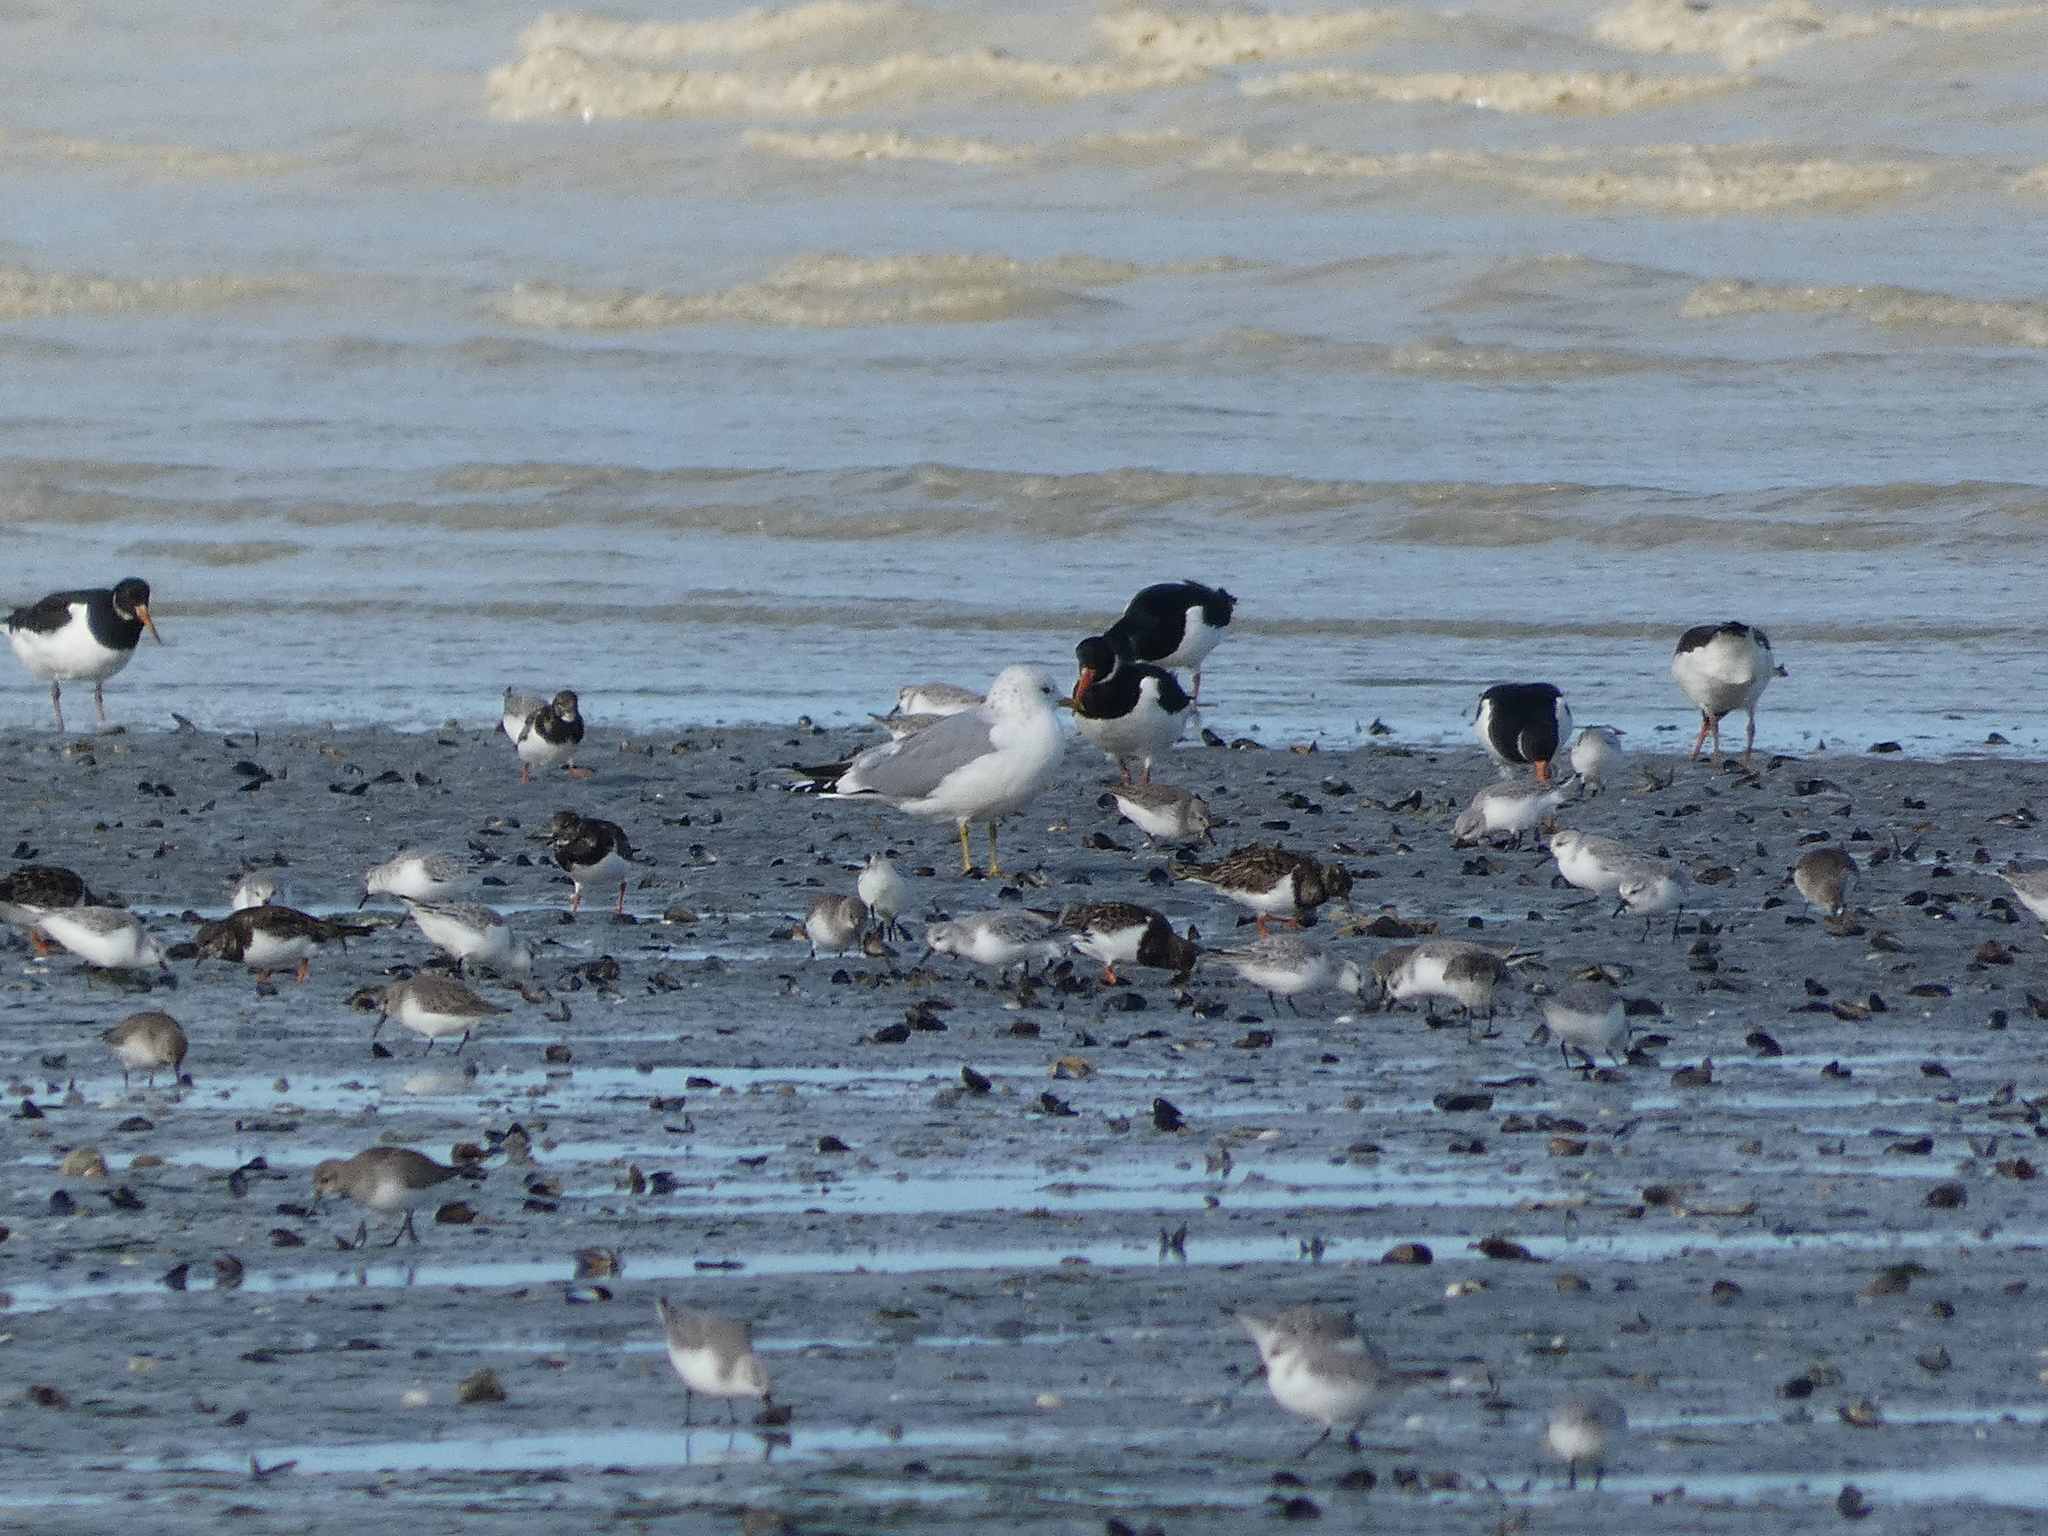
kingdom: Animalia
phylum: Chordata
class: Aves
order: Charadriiformes
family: Laridae
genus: Larus
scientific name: Larus canus
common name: Mew gull
